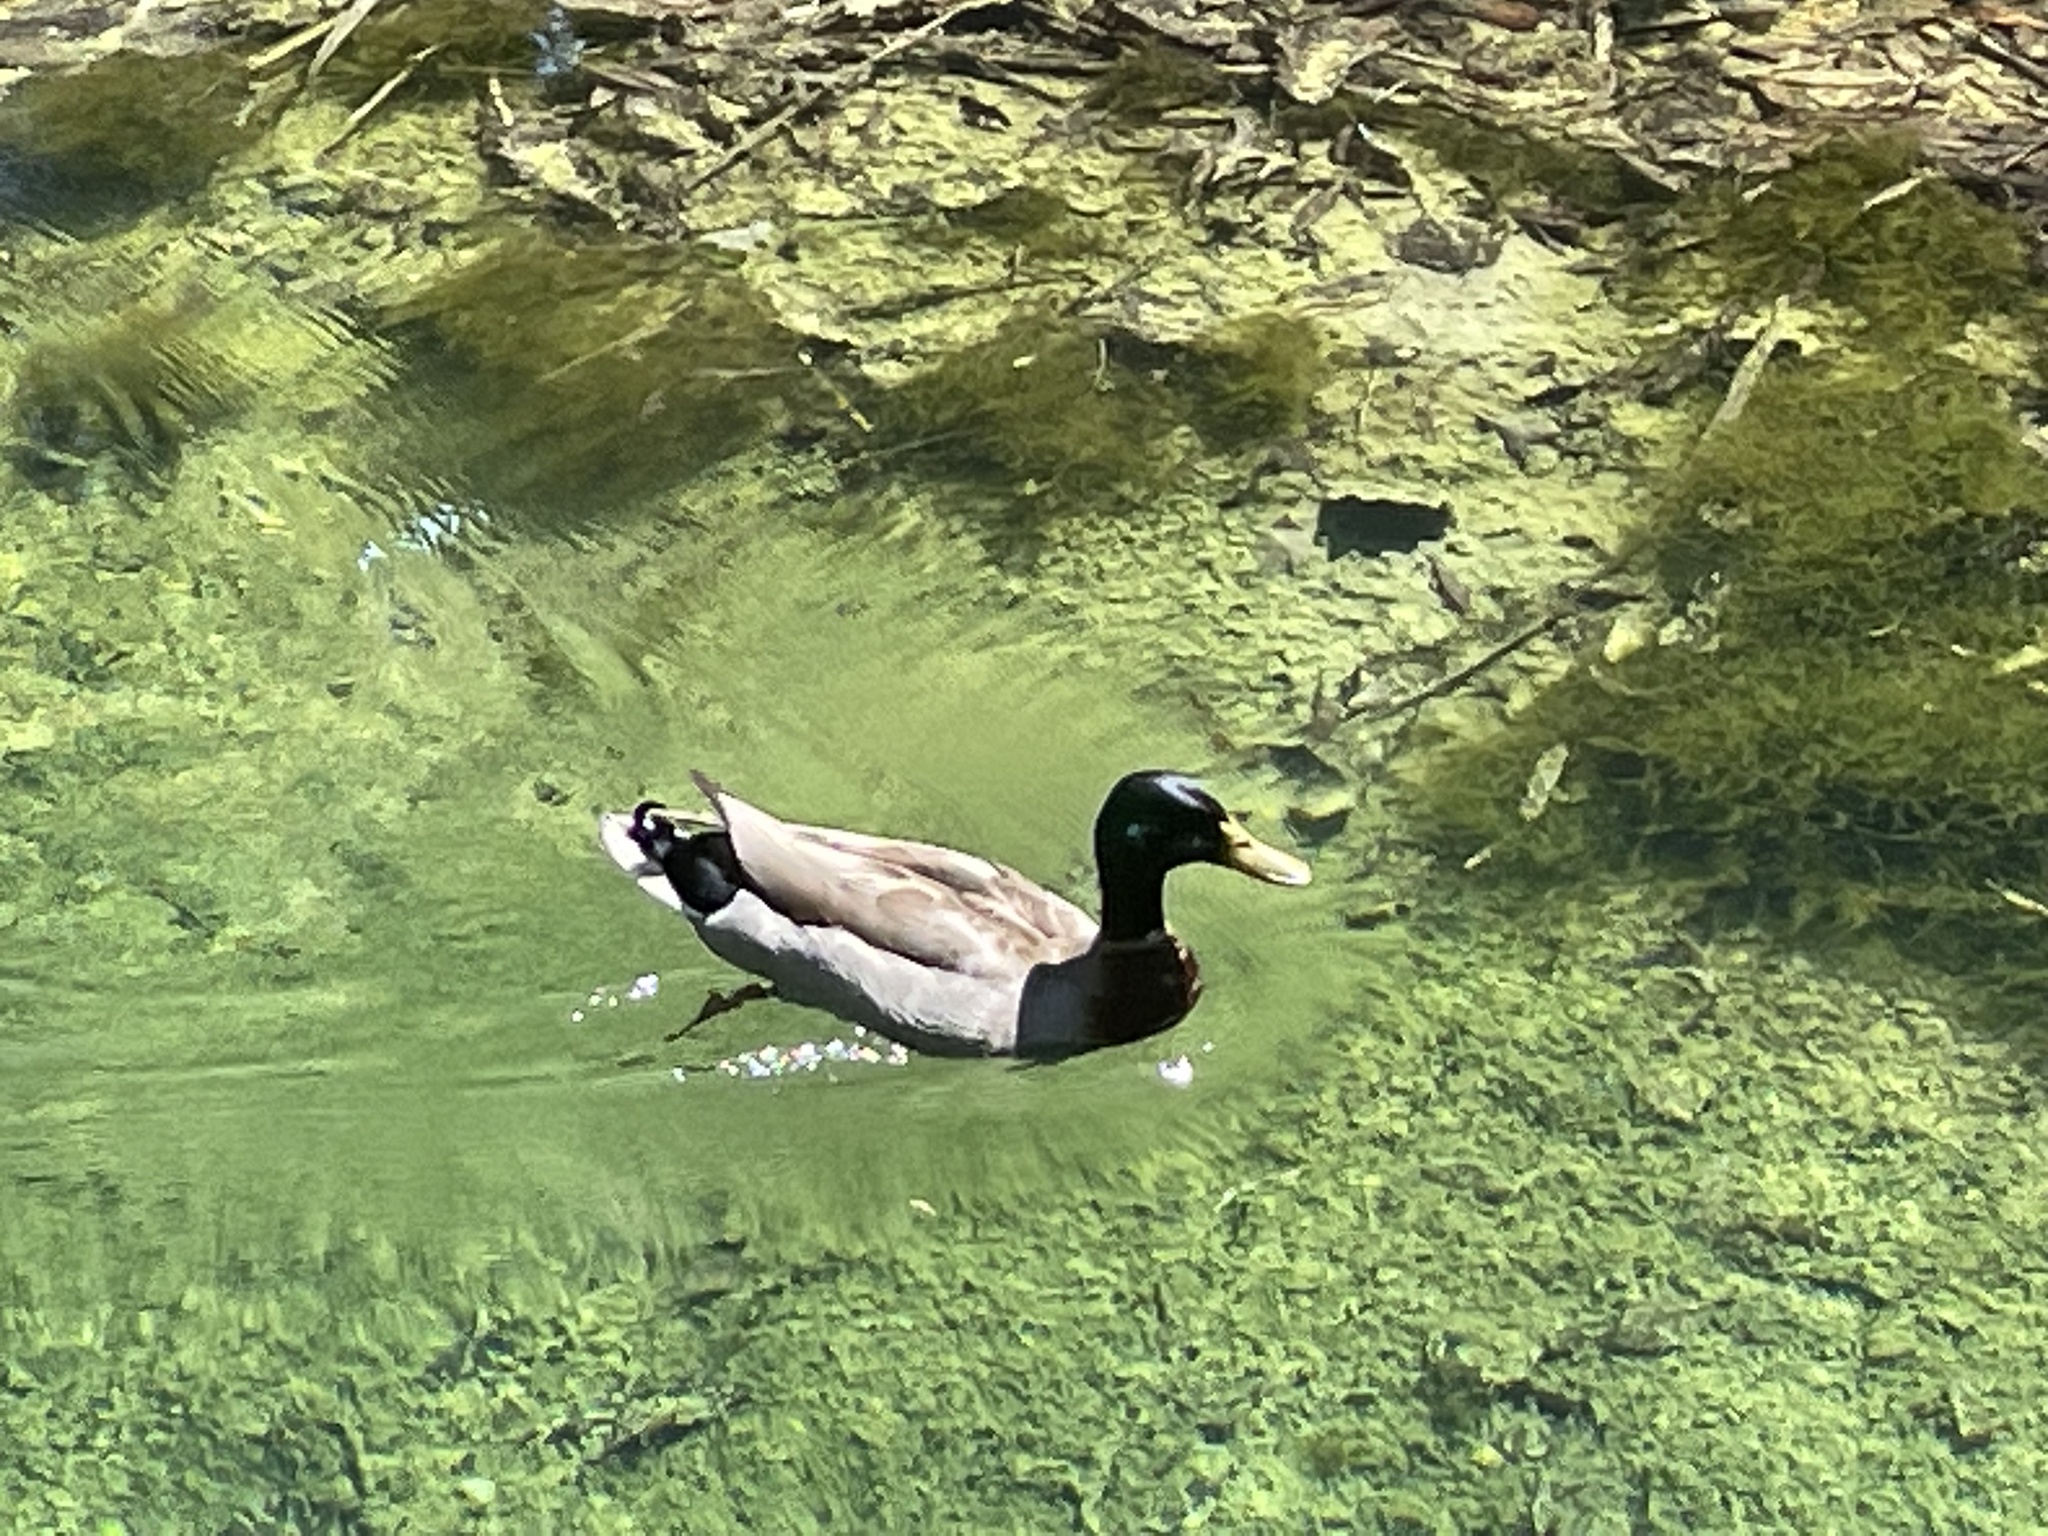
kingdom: Animalia
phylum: Chordata
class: Aves
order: Anseriformes
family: Anatidae
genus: Anas
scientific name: Anas platyrhynchos
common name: Mallard
